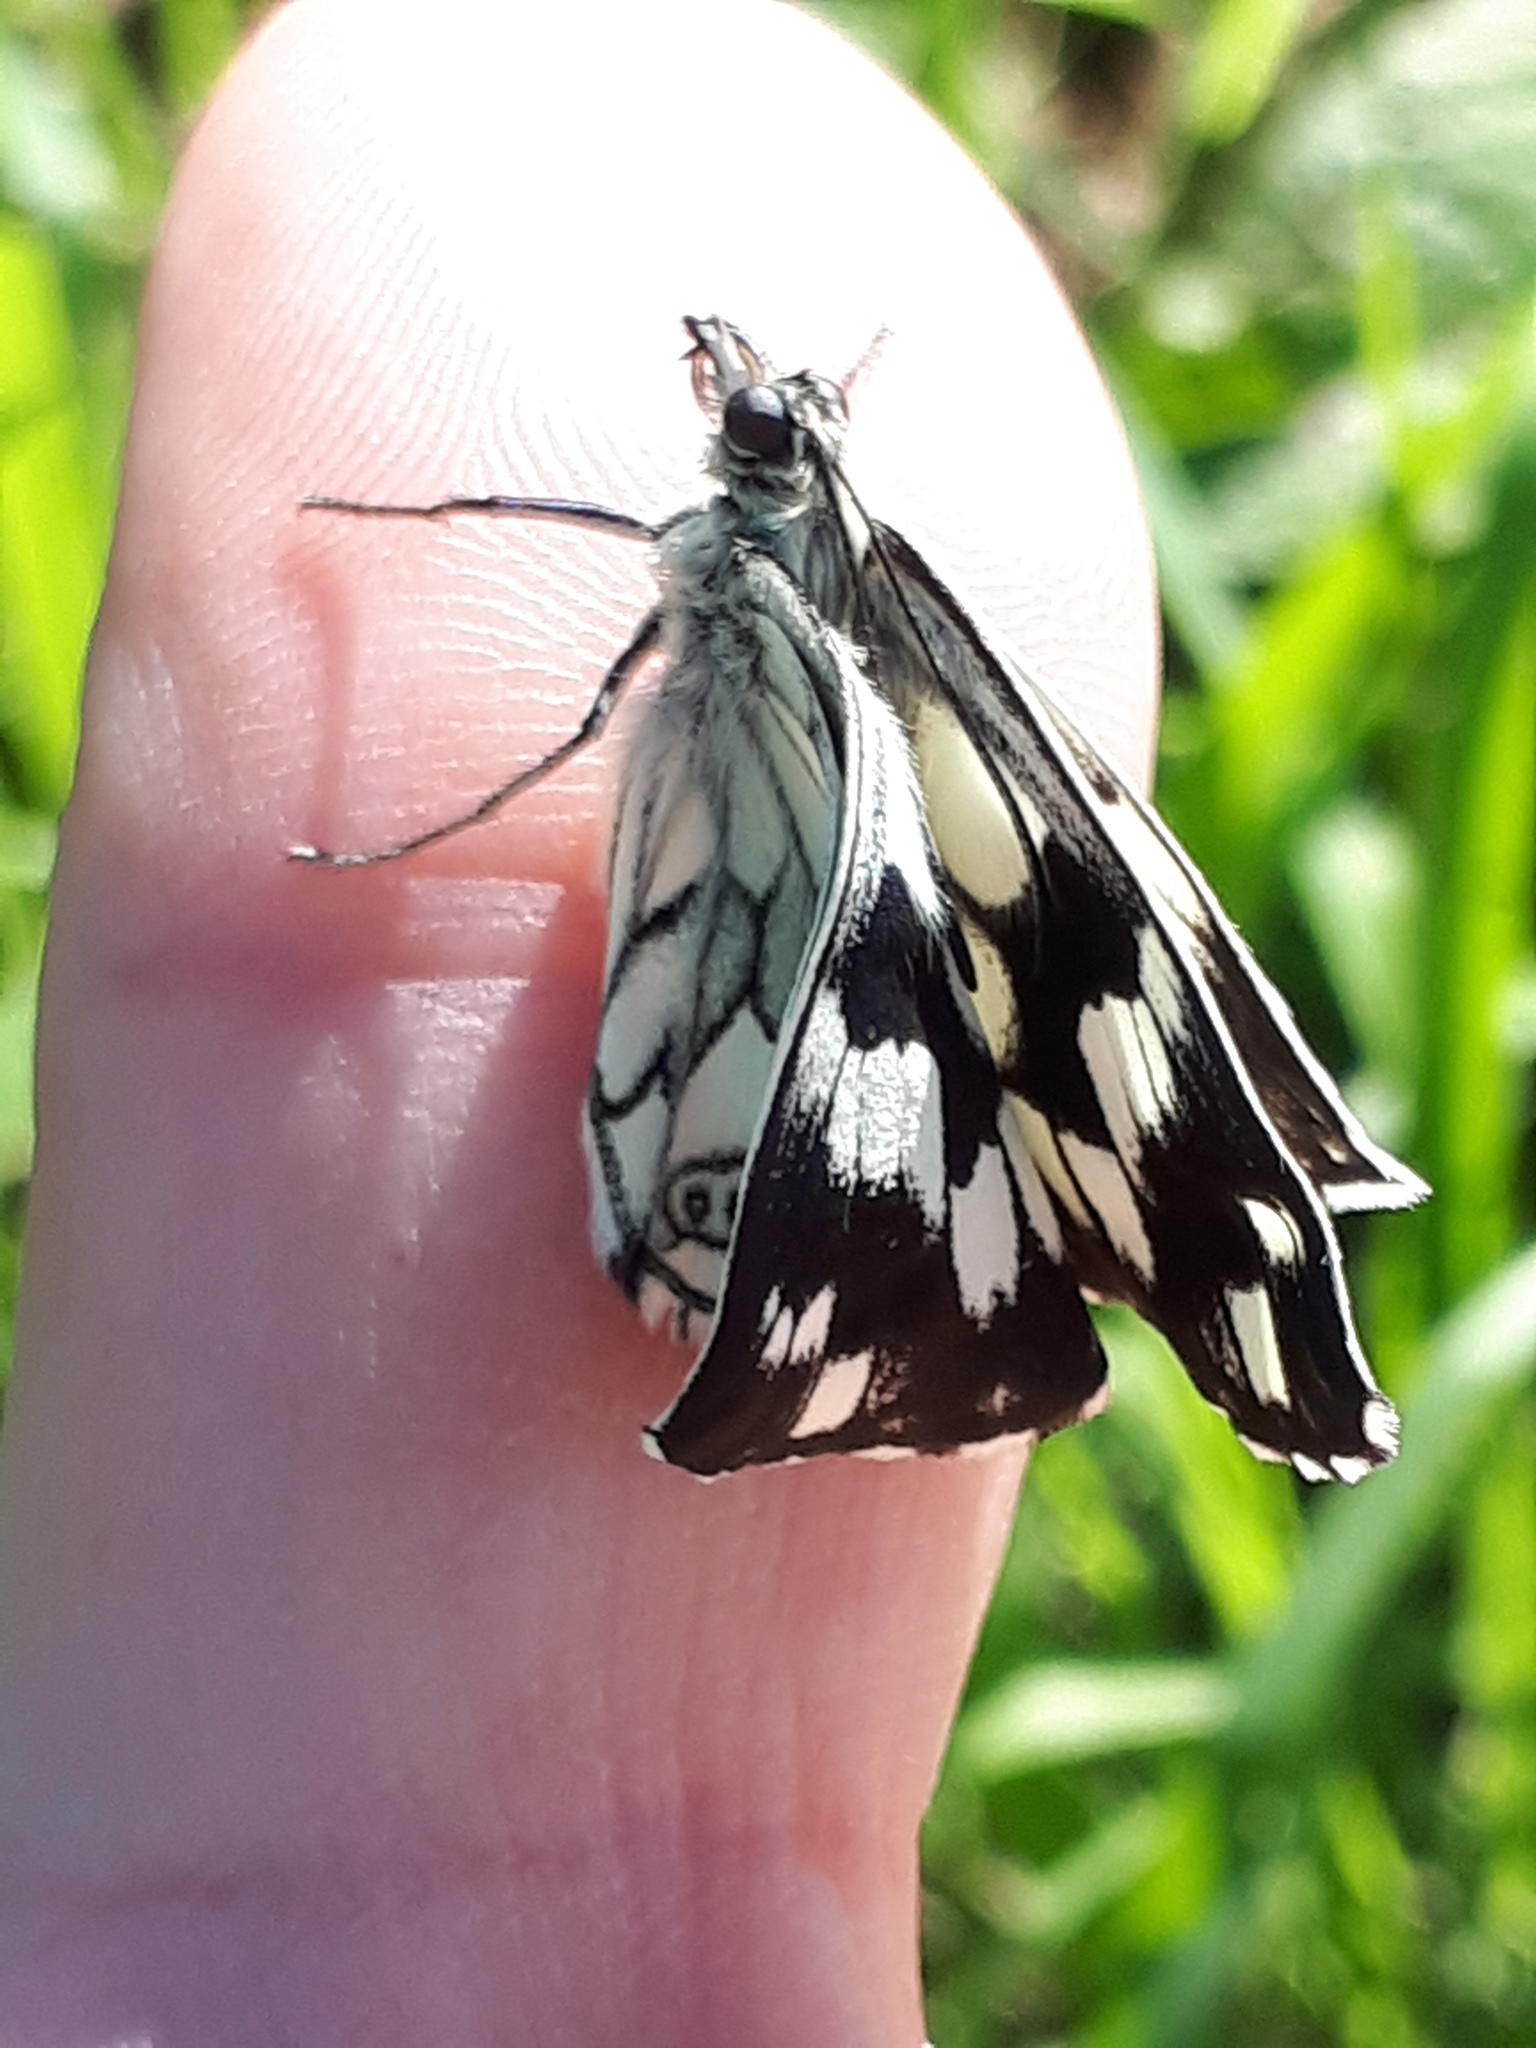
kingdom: Animalia
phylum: Arthropoda
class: Insecta
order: Lepidoptera
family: Nymphalidae
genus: Melanargia
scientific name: Melanargia galathea
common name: Marbled white
